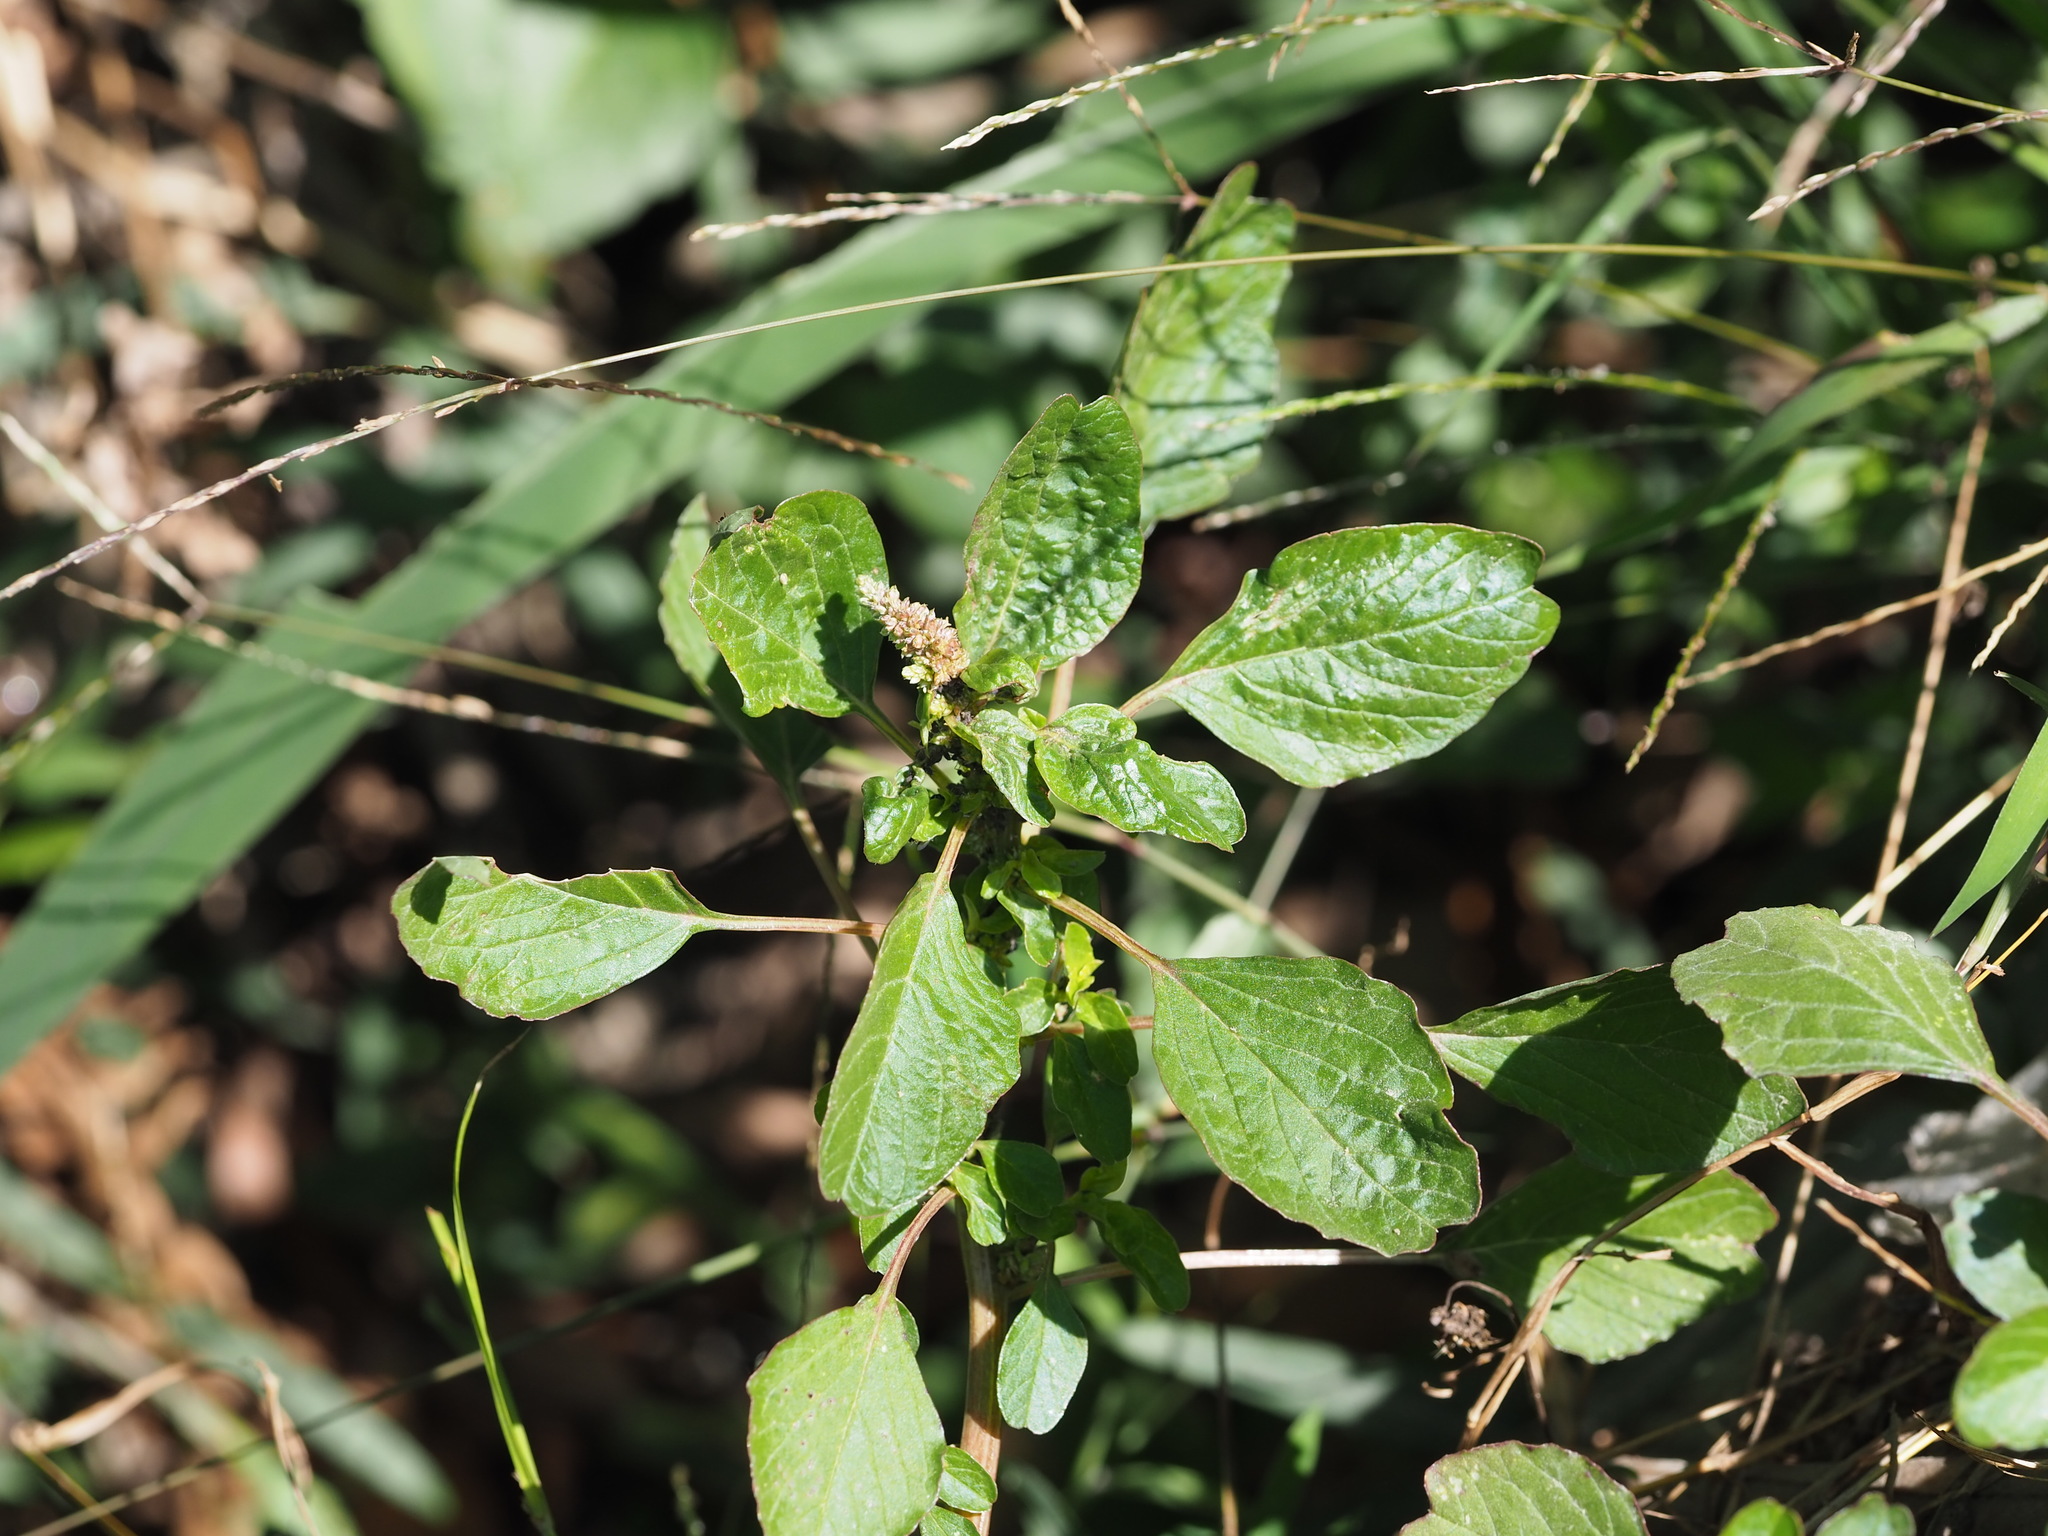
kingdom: Plantae
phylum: Tracheophyta
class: Magnoliopsida
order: Caryophyllales
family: Amaranthaceae
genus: Amaranthus
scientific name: Amaranthus blitum
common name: Purple amaranth
